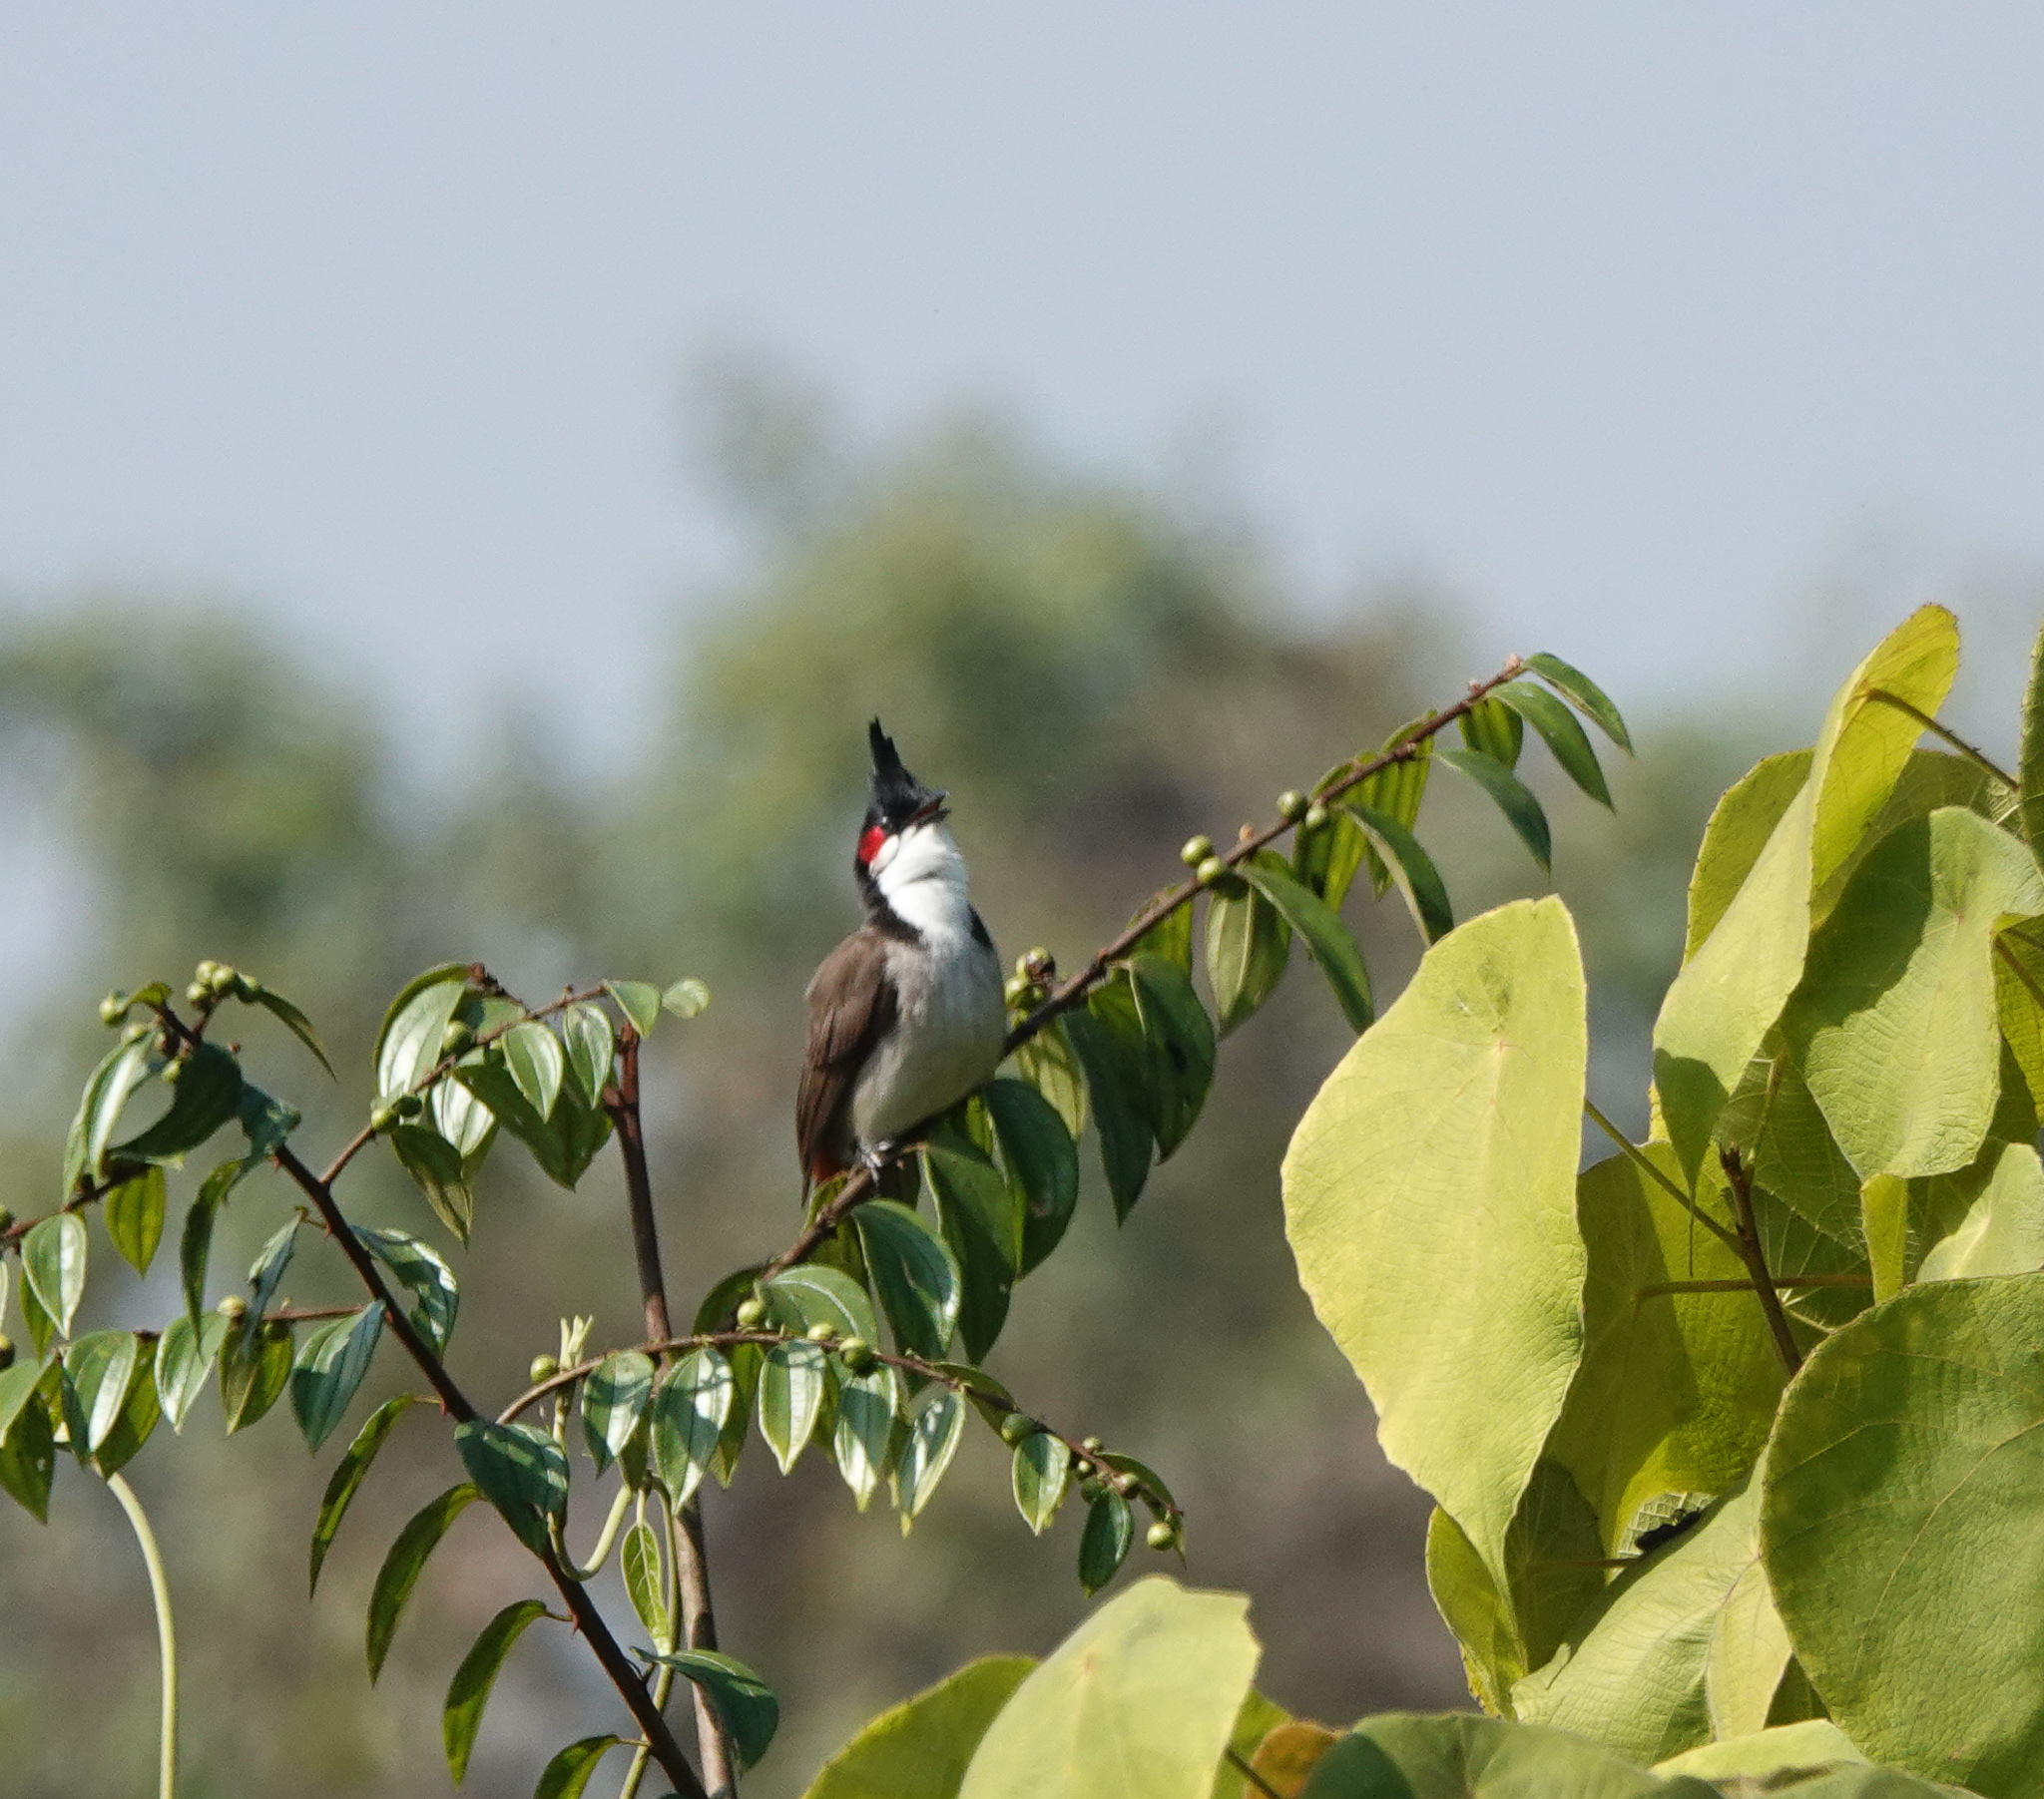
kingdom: Animalia
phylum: Chordata
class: Aves
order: Passeriformes
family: Pycnonotidae
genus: Pycnonotus
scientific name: Pycnonotus jocosus
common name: Red-whiskered bulbul
